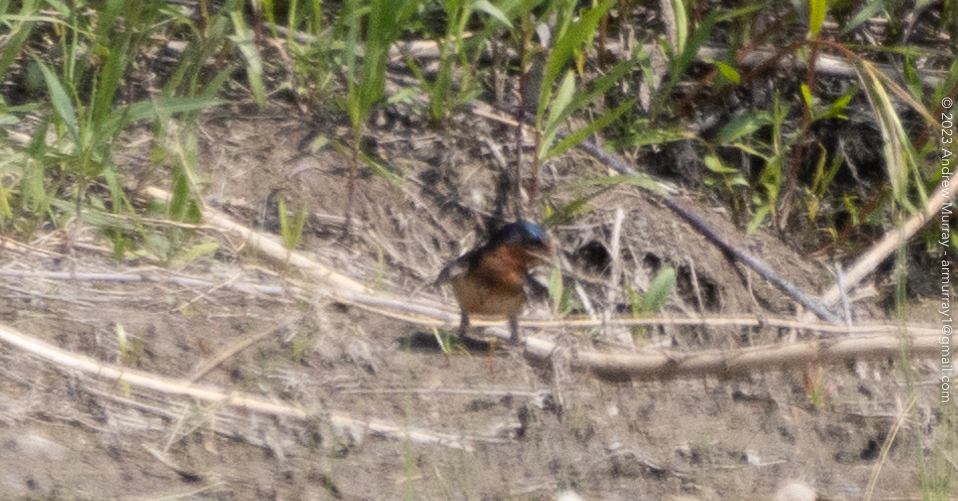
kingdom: Animalia
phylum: Chordata
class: Aves
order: Passeriformes
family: Hirundinidae
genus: Hirundo
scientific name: Hirundo rustica
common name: Barn swallow
